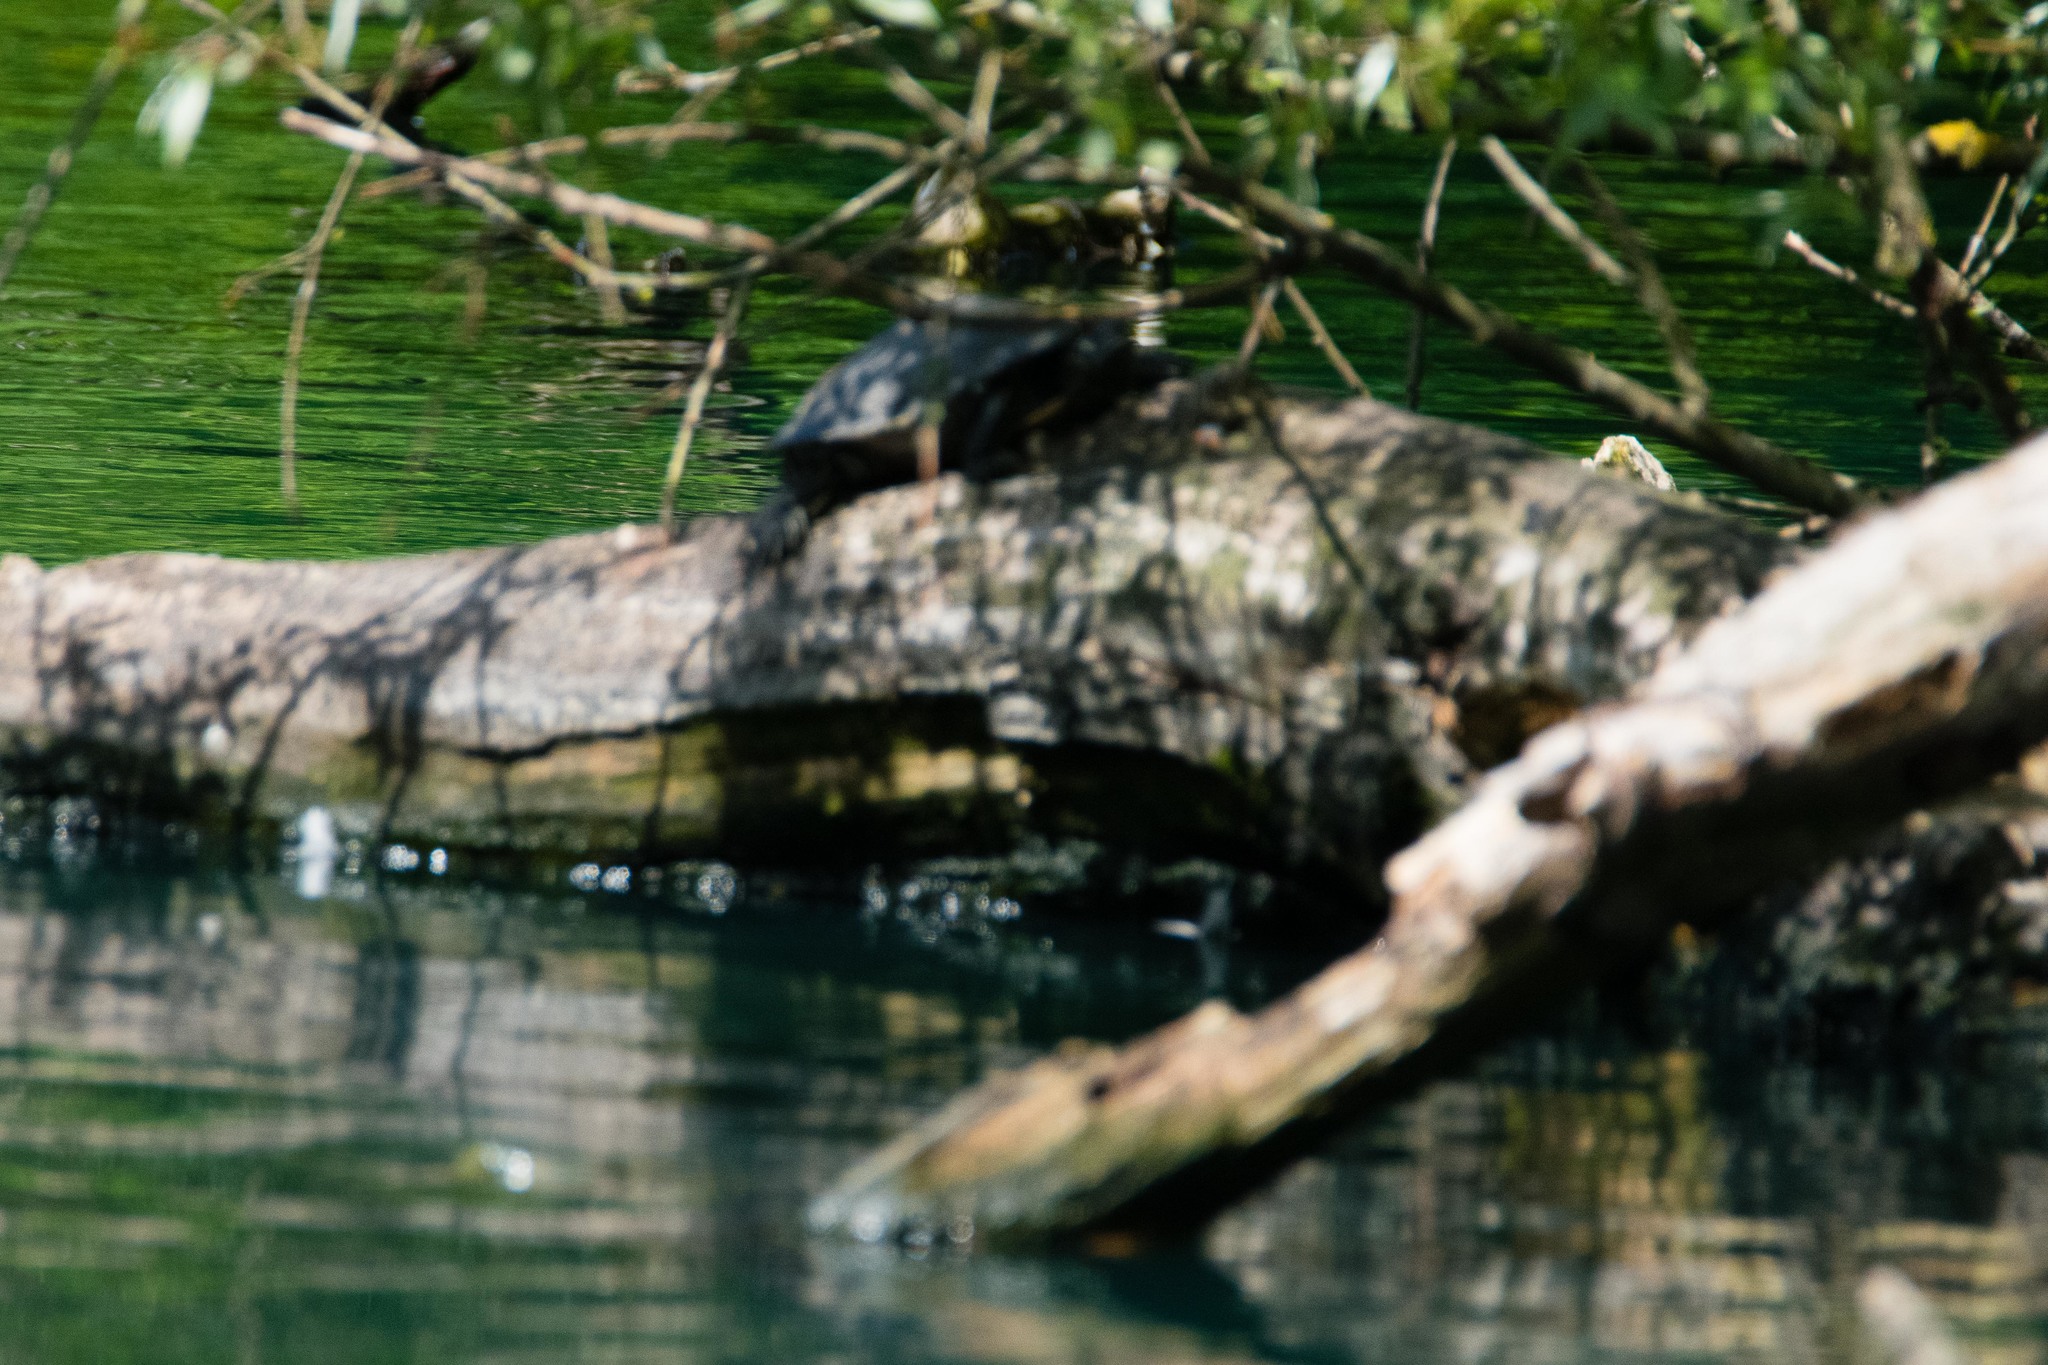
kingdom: Animalia
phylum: Chordata
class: Testudines
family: Emydidae
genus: Trachemys
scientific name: Trachemys scripta
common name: Slider
